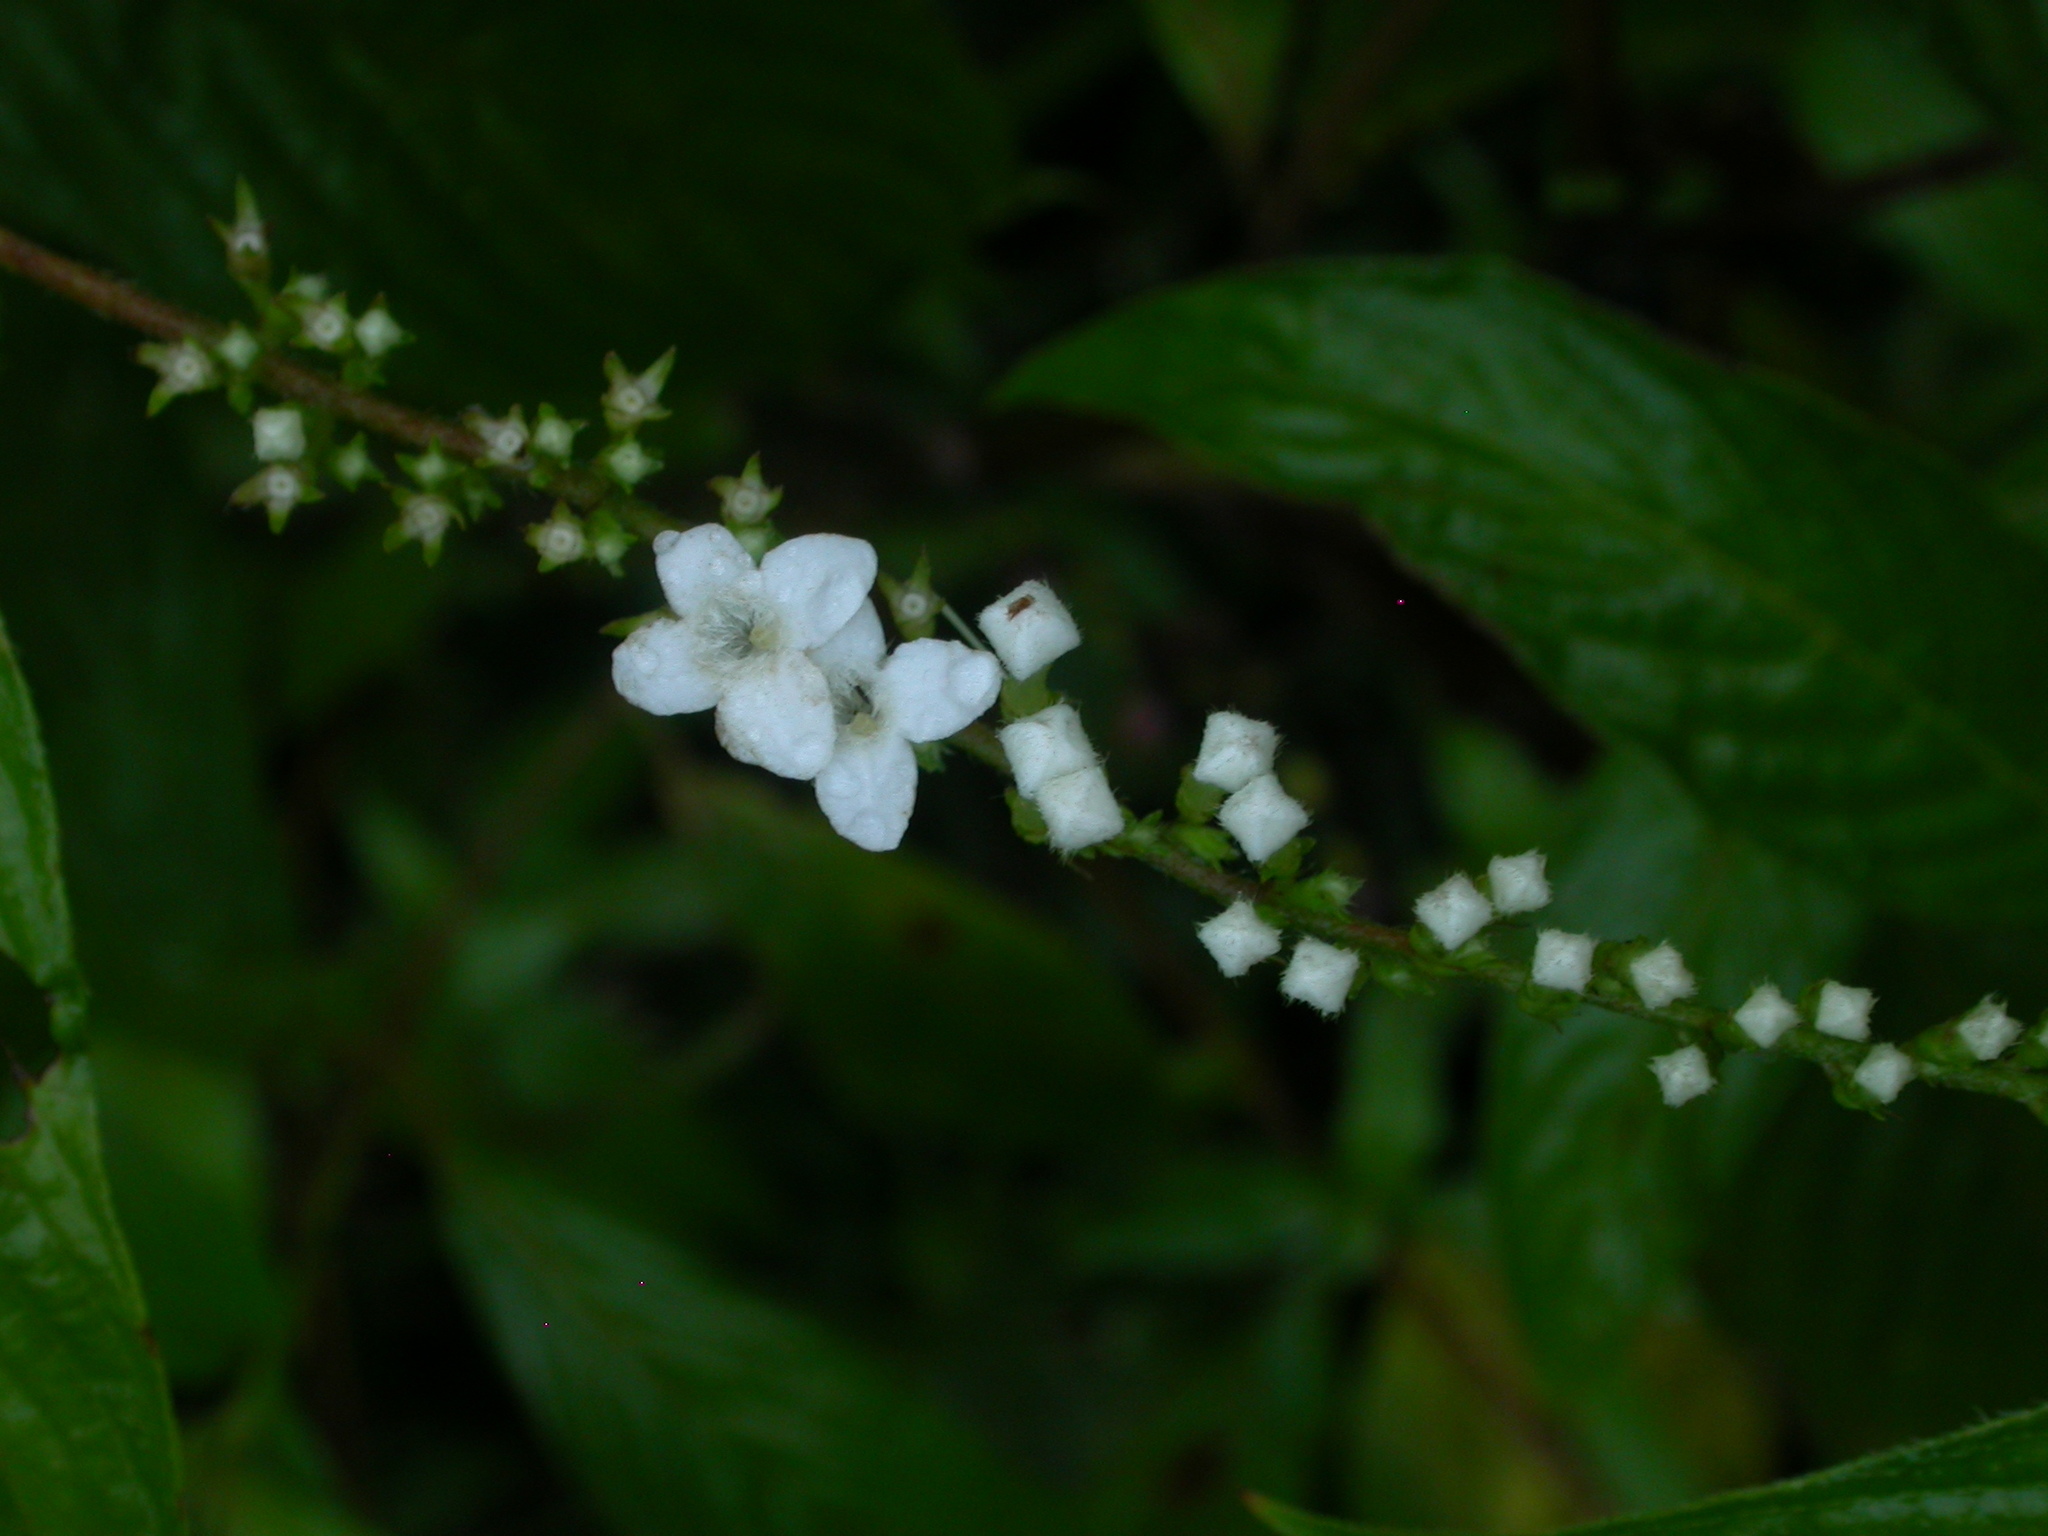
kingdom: Plantae
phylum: Tracheophyta
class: Magnoliopsida
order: Gentianales
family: Rubiaceae
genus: Gonzalagunia
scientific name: Gonzalagunia hirsuta
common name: Mata de mariposa
